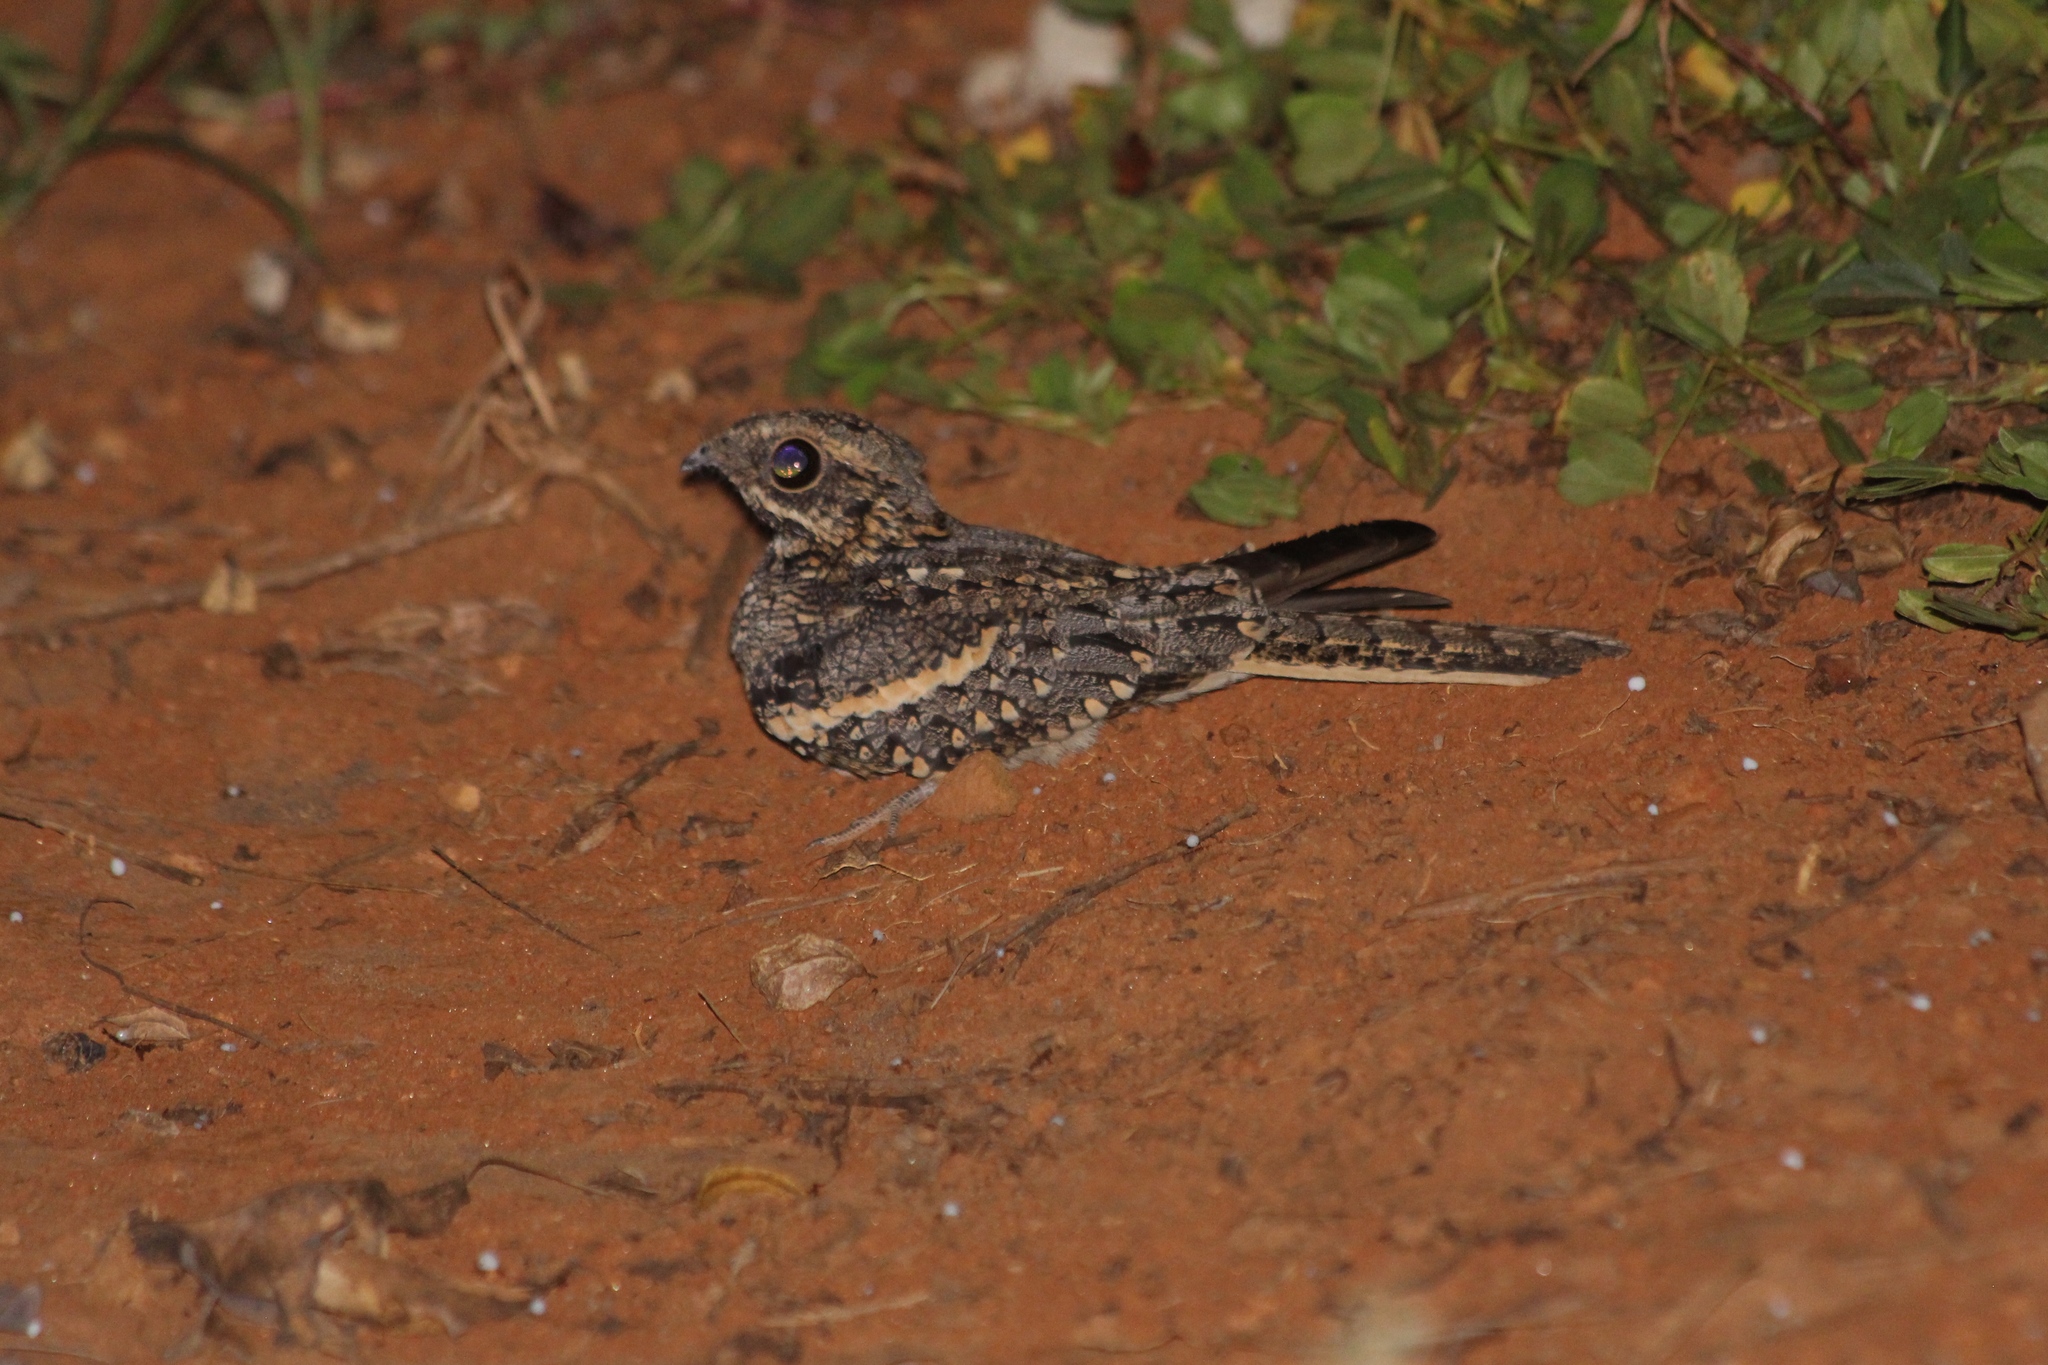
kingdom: Animalia
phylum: Chordata
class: Aves
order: Caprimulgiformes
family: Caprimulgidae
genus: Caprimulgus
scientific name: Caprimulgus europaeus
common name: European nightjar
